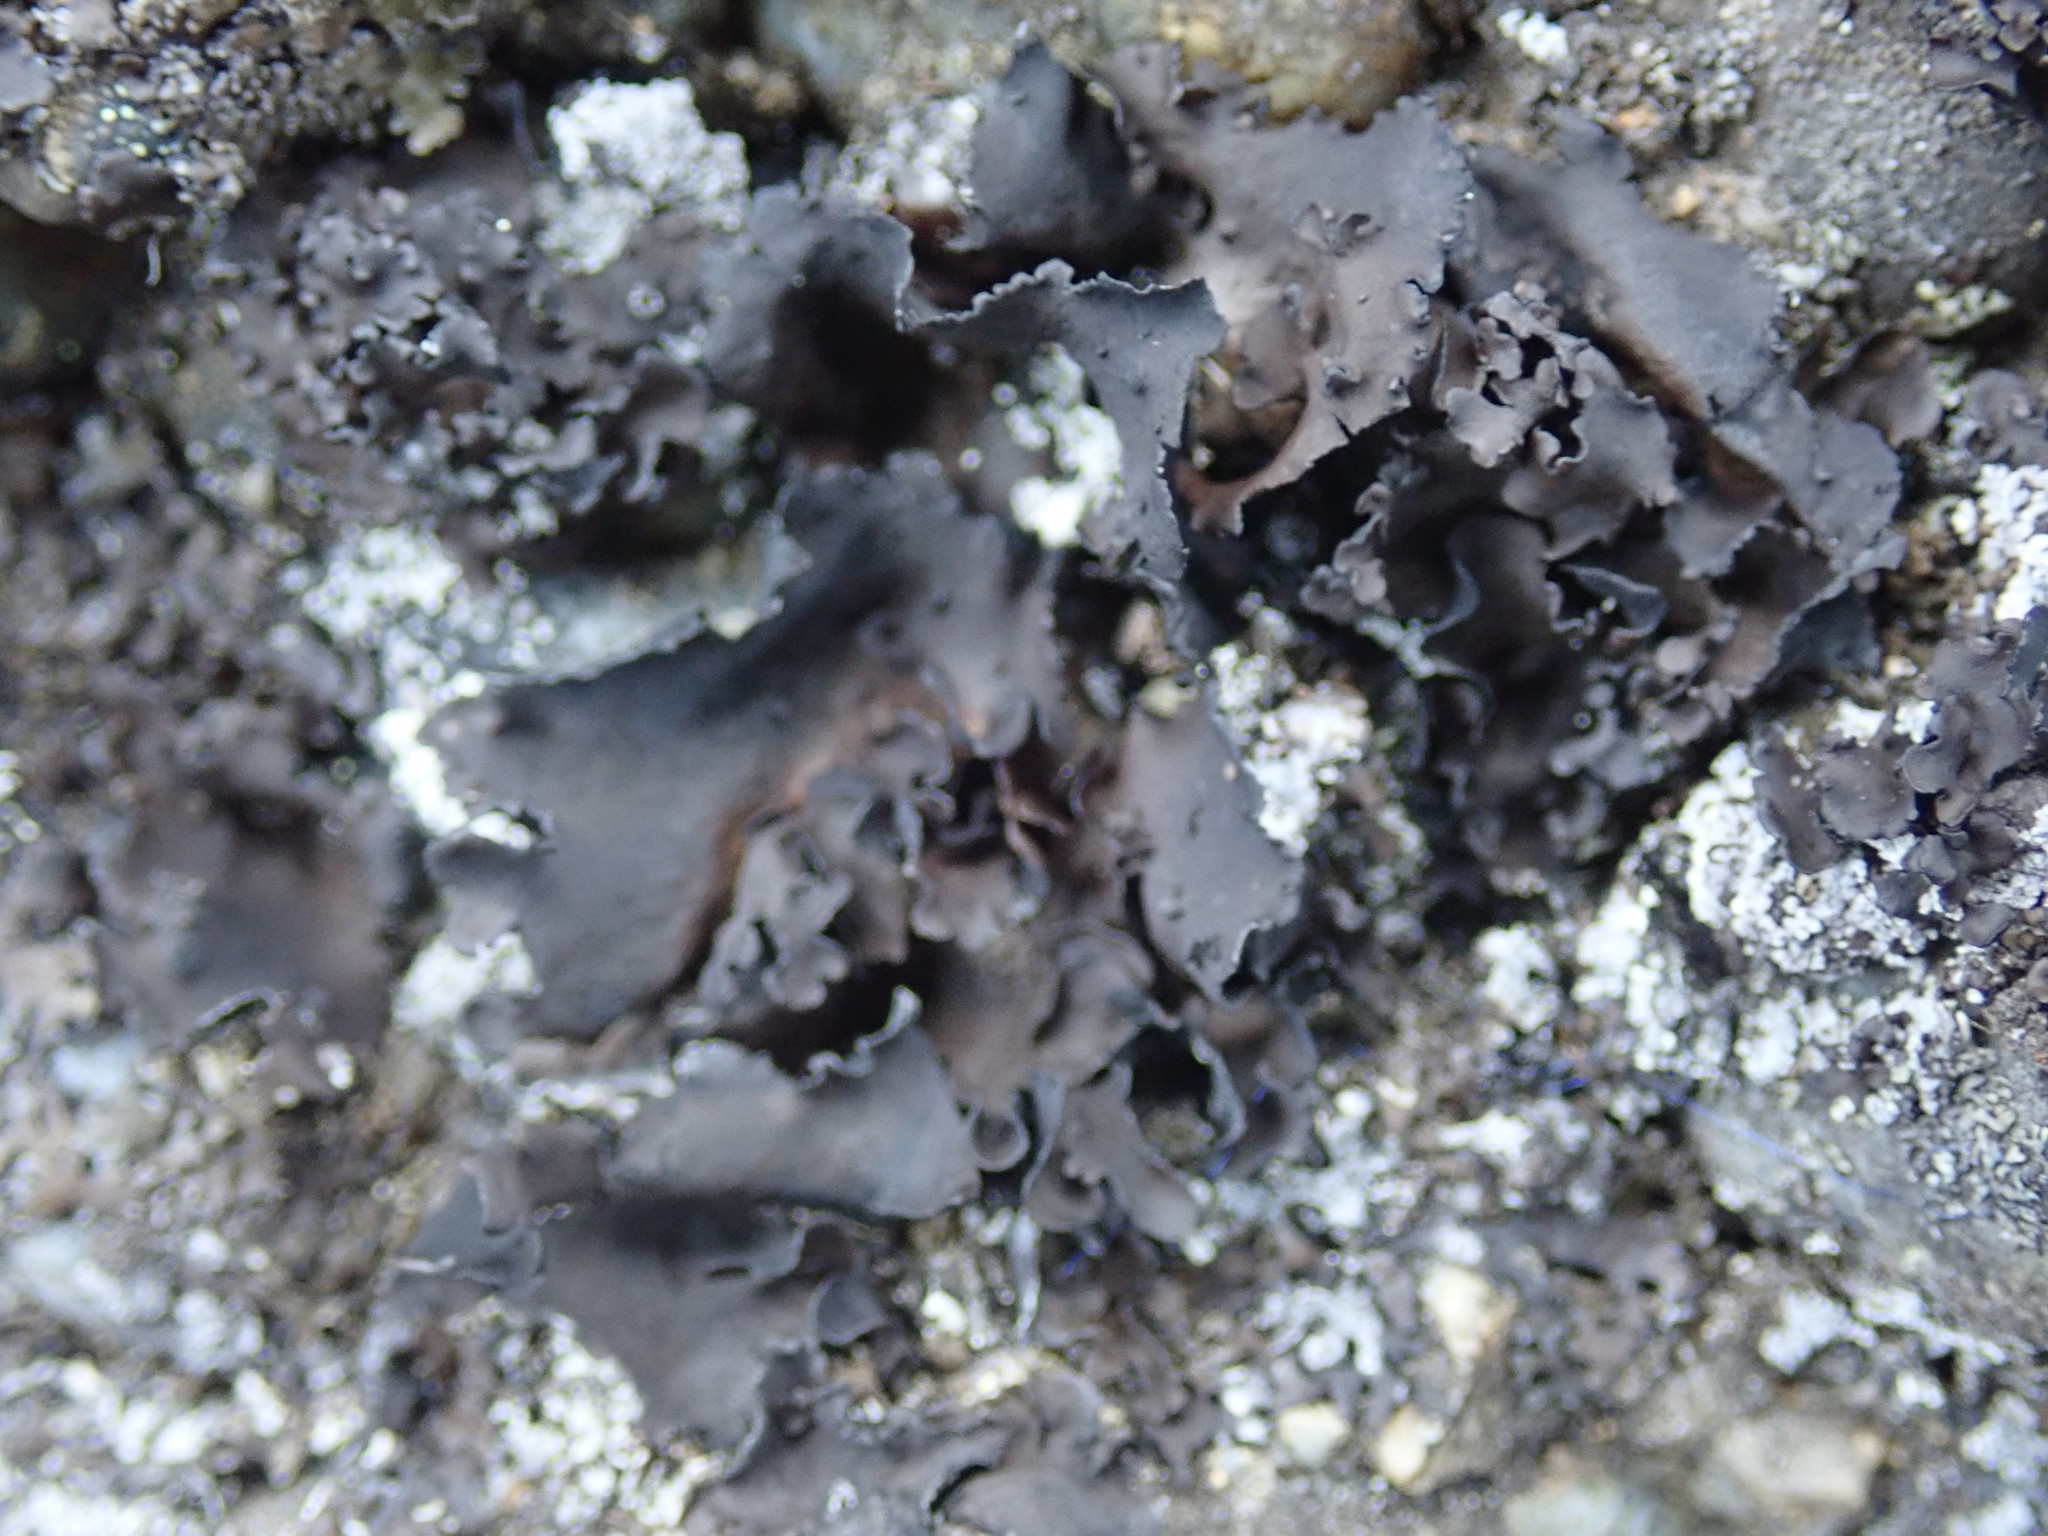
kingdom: Fungi
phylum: Ascomycota
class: Lecanoromycetes
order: Umbilicariales
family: Umbilicariaceae
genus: Umbilicaria
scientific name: Umbilicaria polyphylla
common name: Petalled rocktripe lichen
